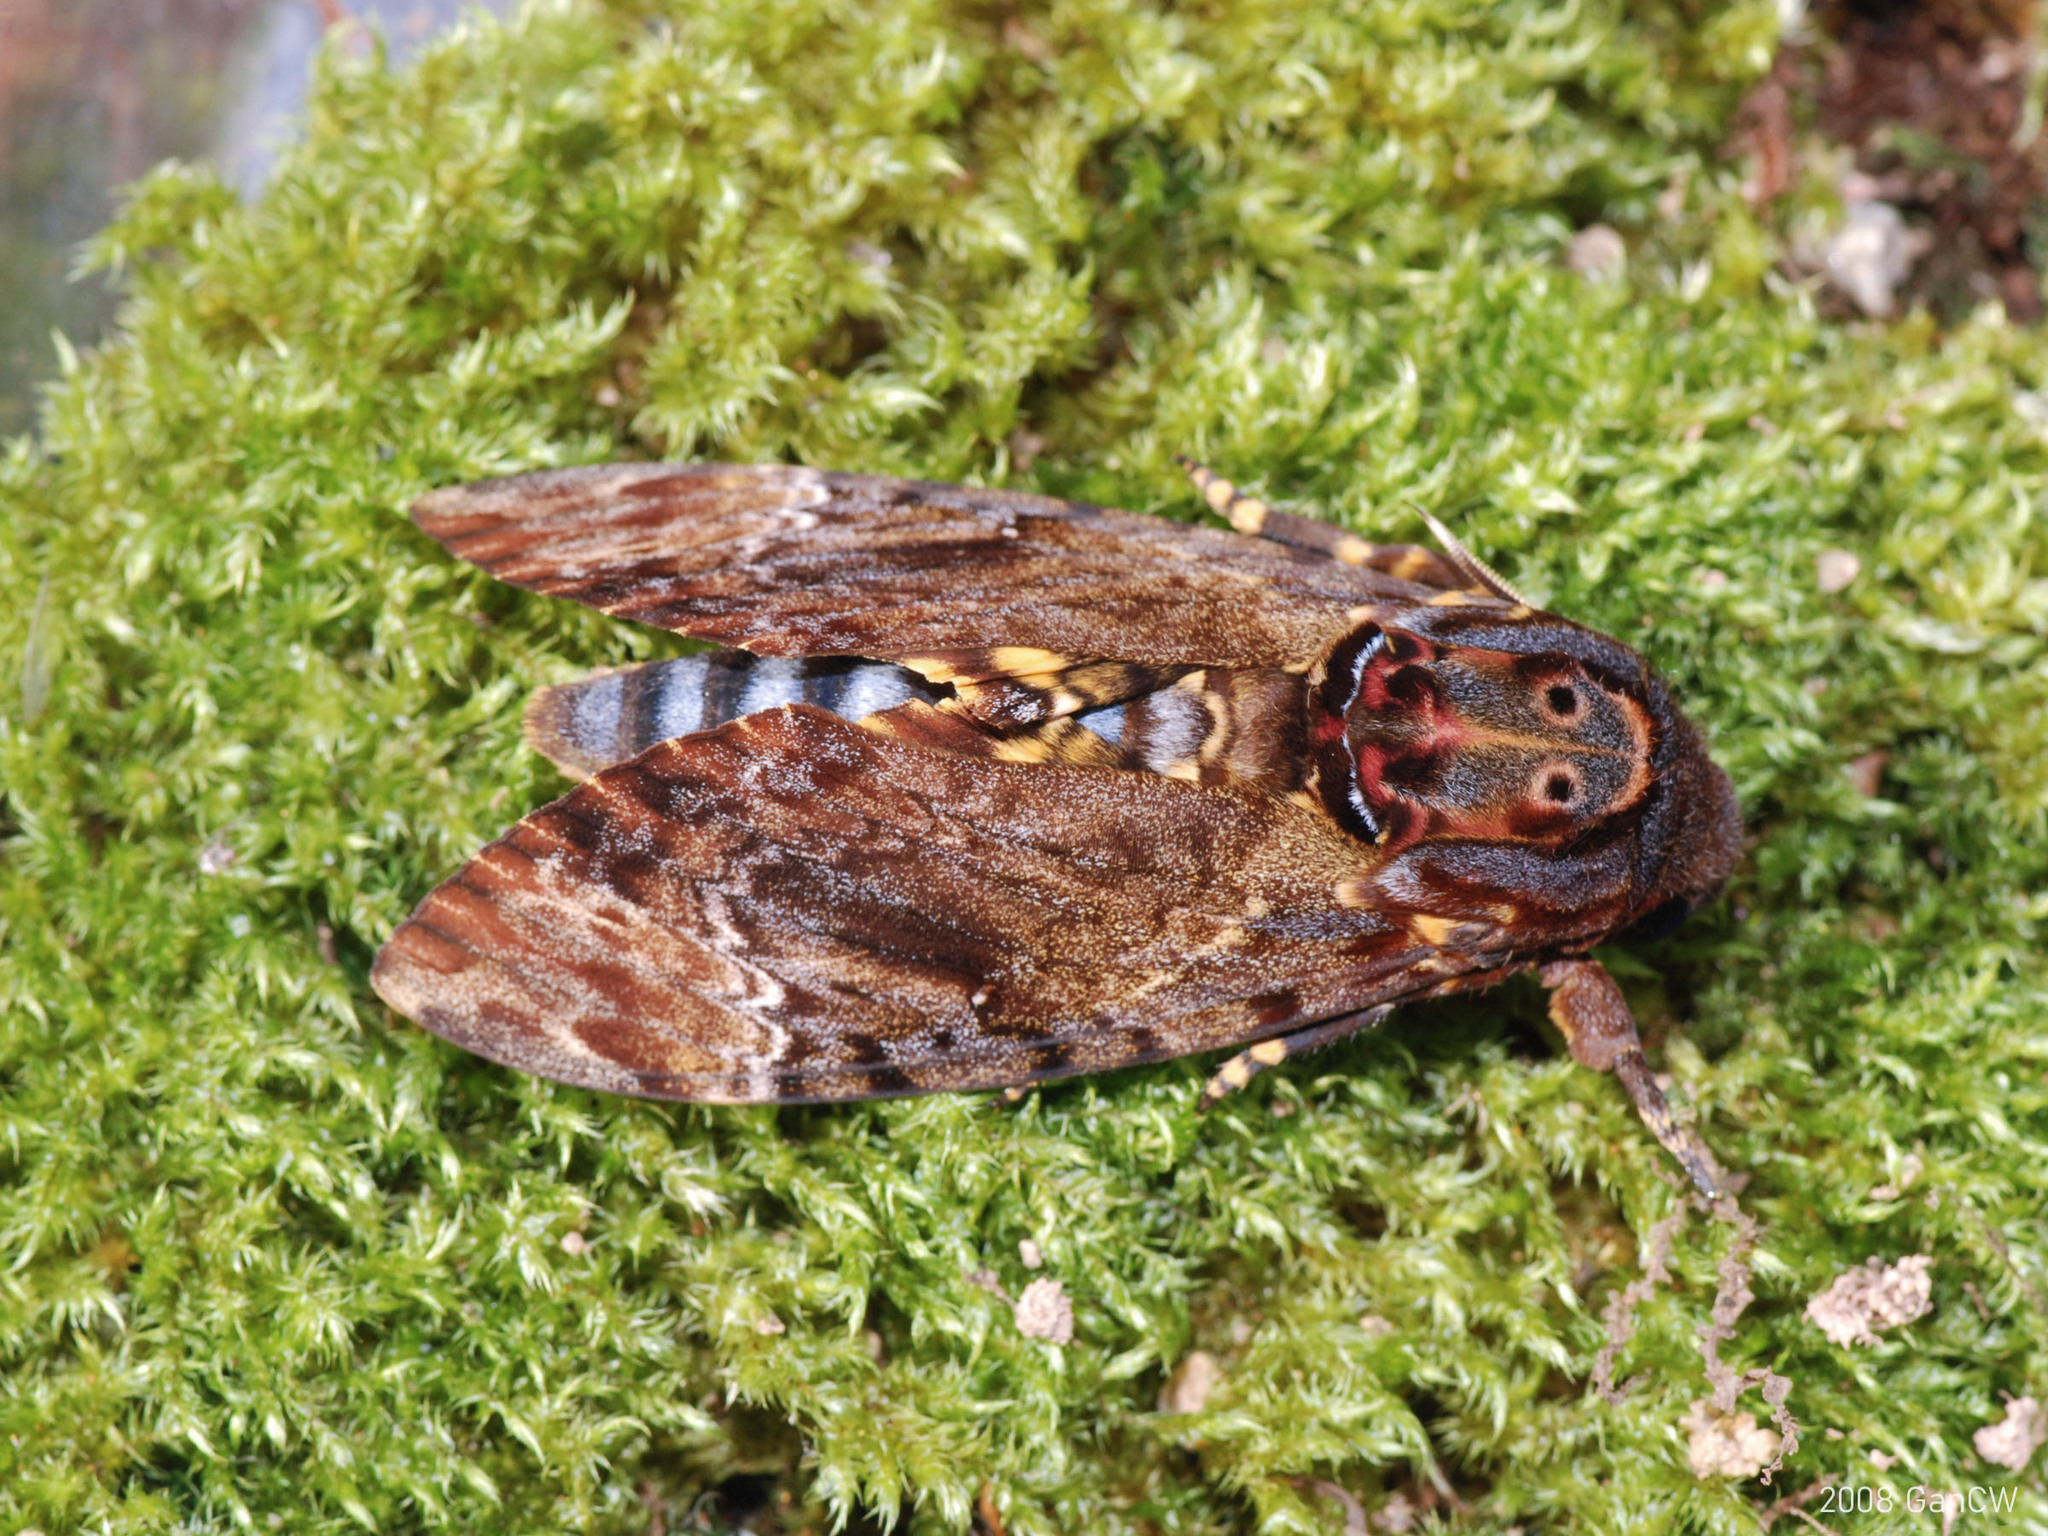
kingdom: Animalia
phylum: Arthropoda
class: Insecta
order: Lepidoptera
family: Sphingidae
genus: Acherontia
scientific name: Acherontia lachesis
